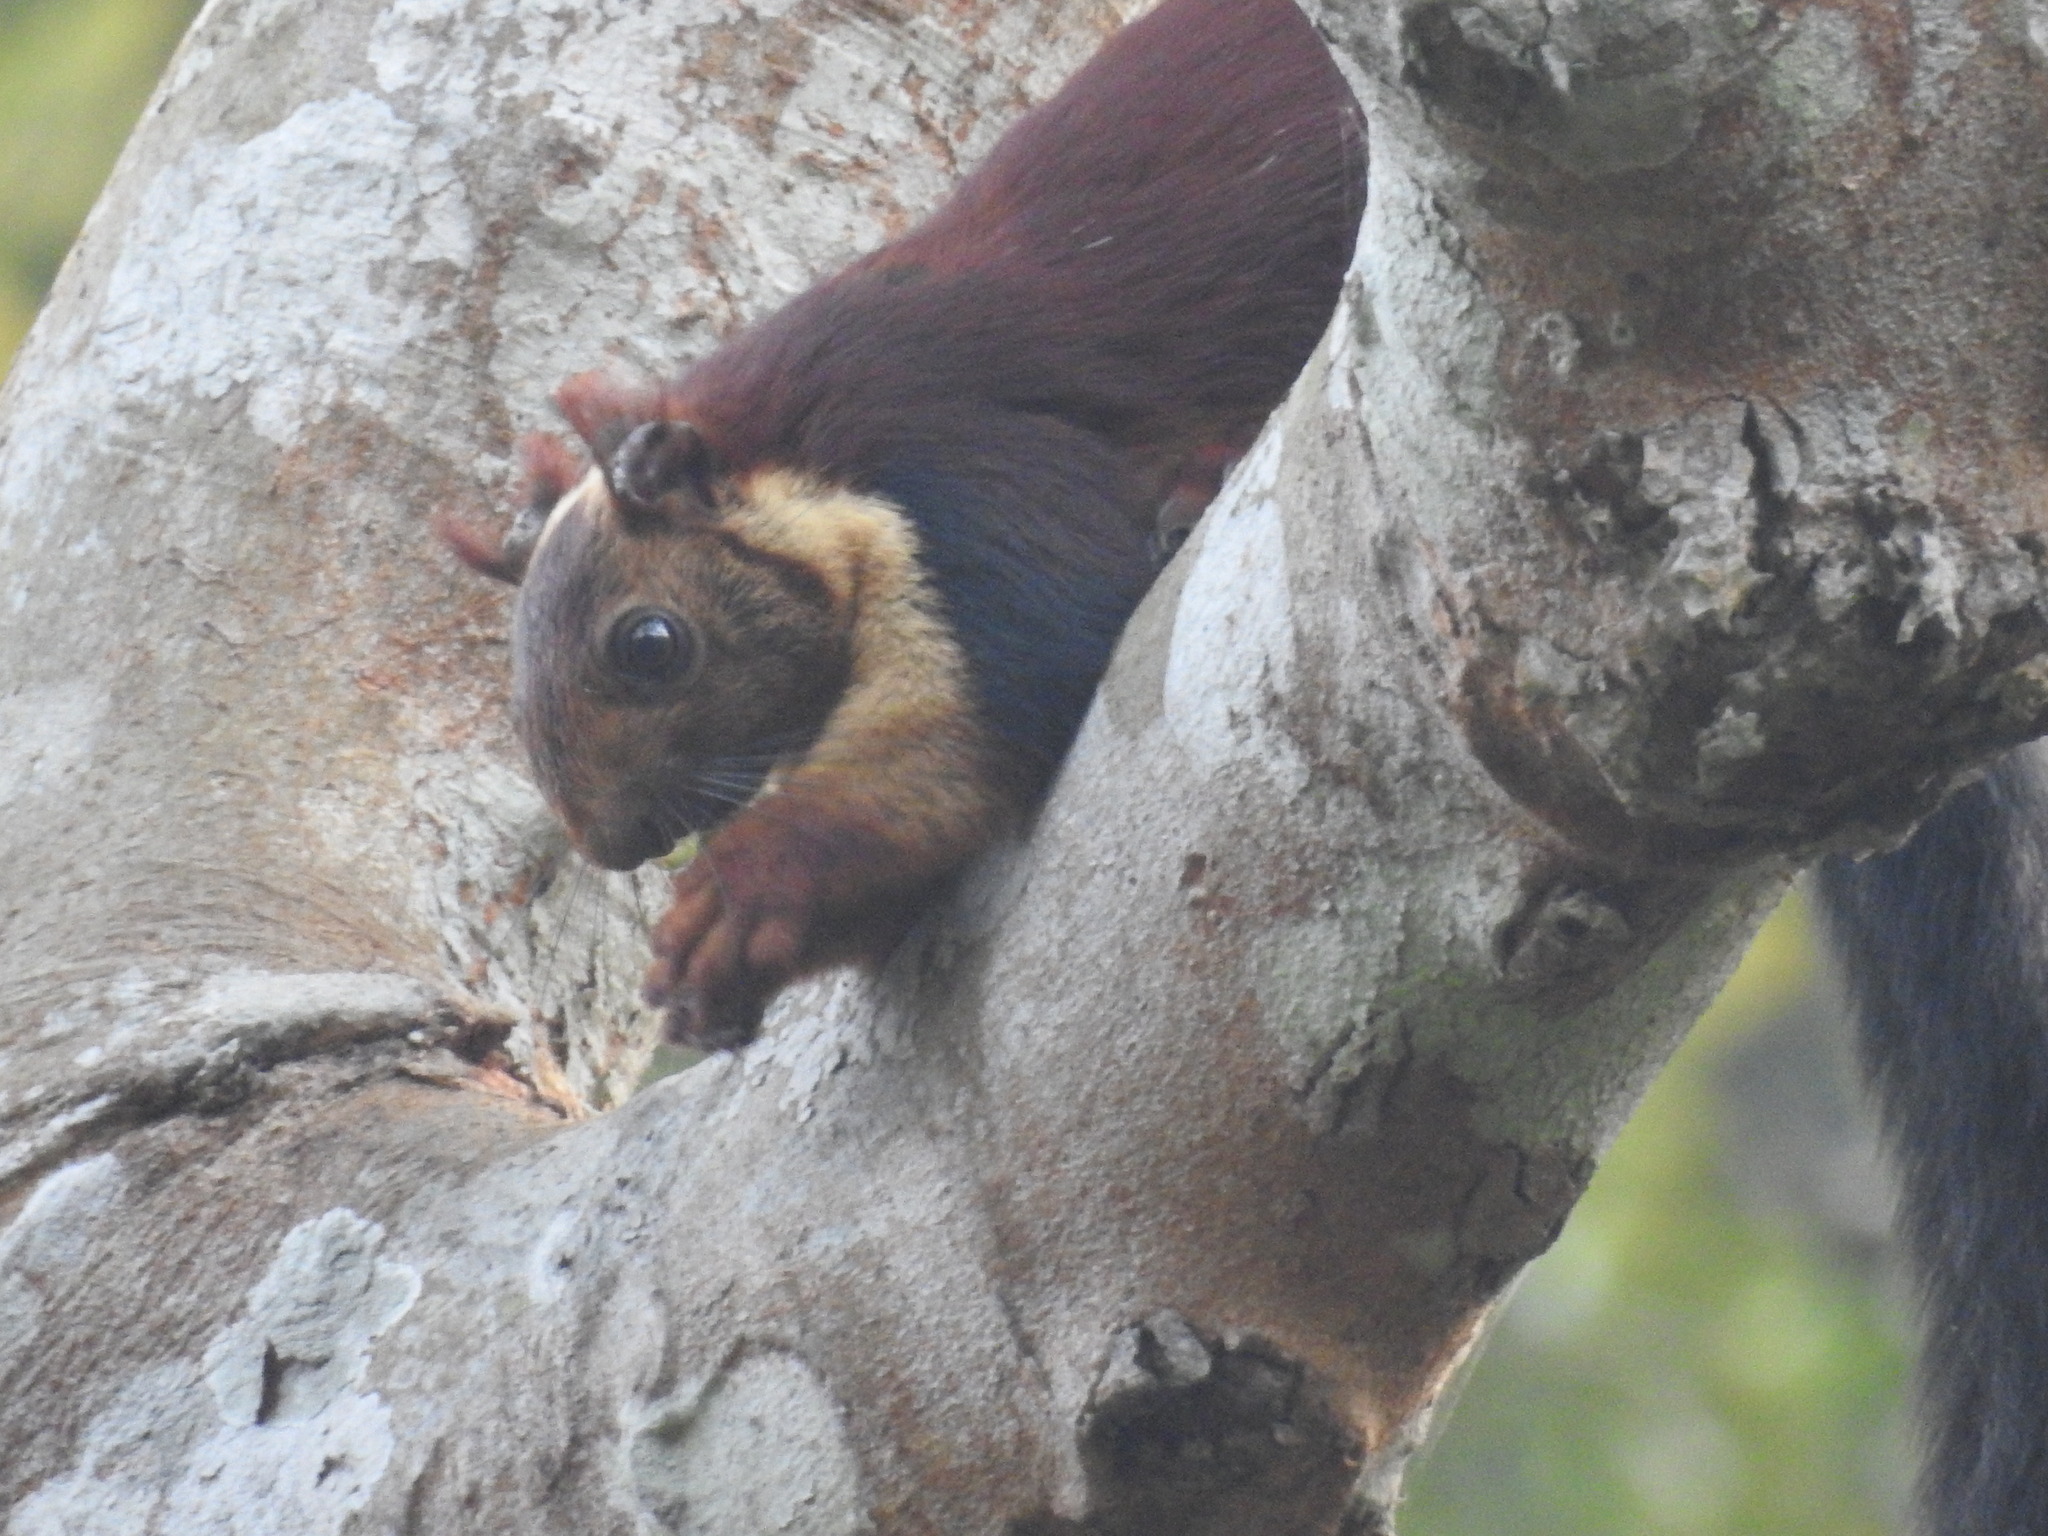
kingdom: Animalia
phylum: Chordata
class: Mammalia
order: Rodentia
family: Sciuridae
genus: Ratufa
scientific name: Ratufa indica
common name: Indian giant squirrel
